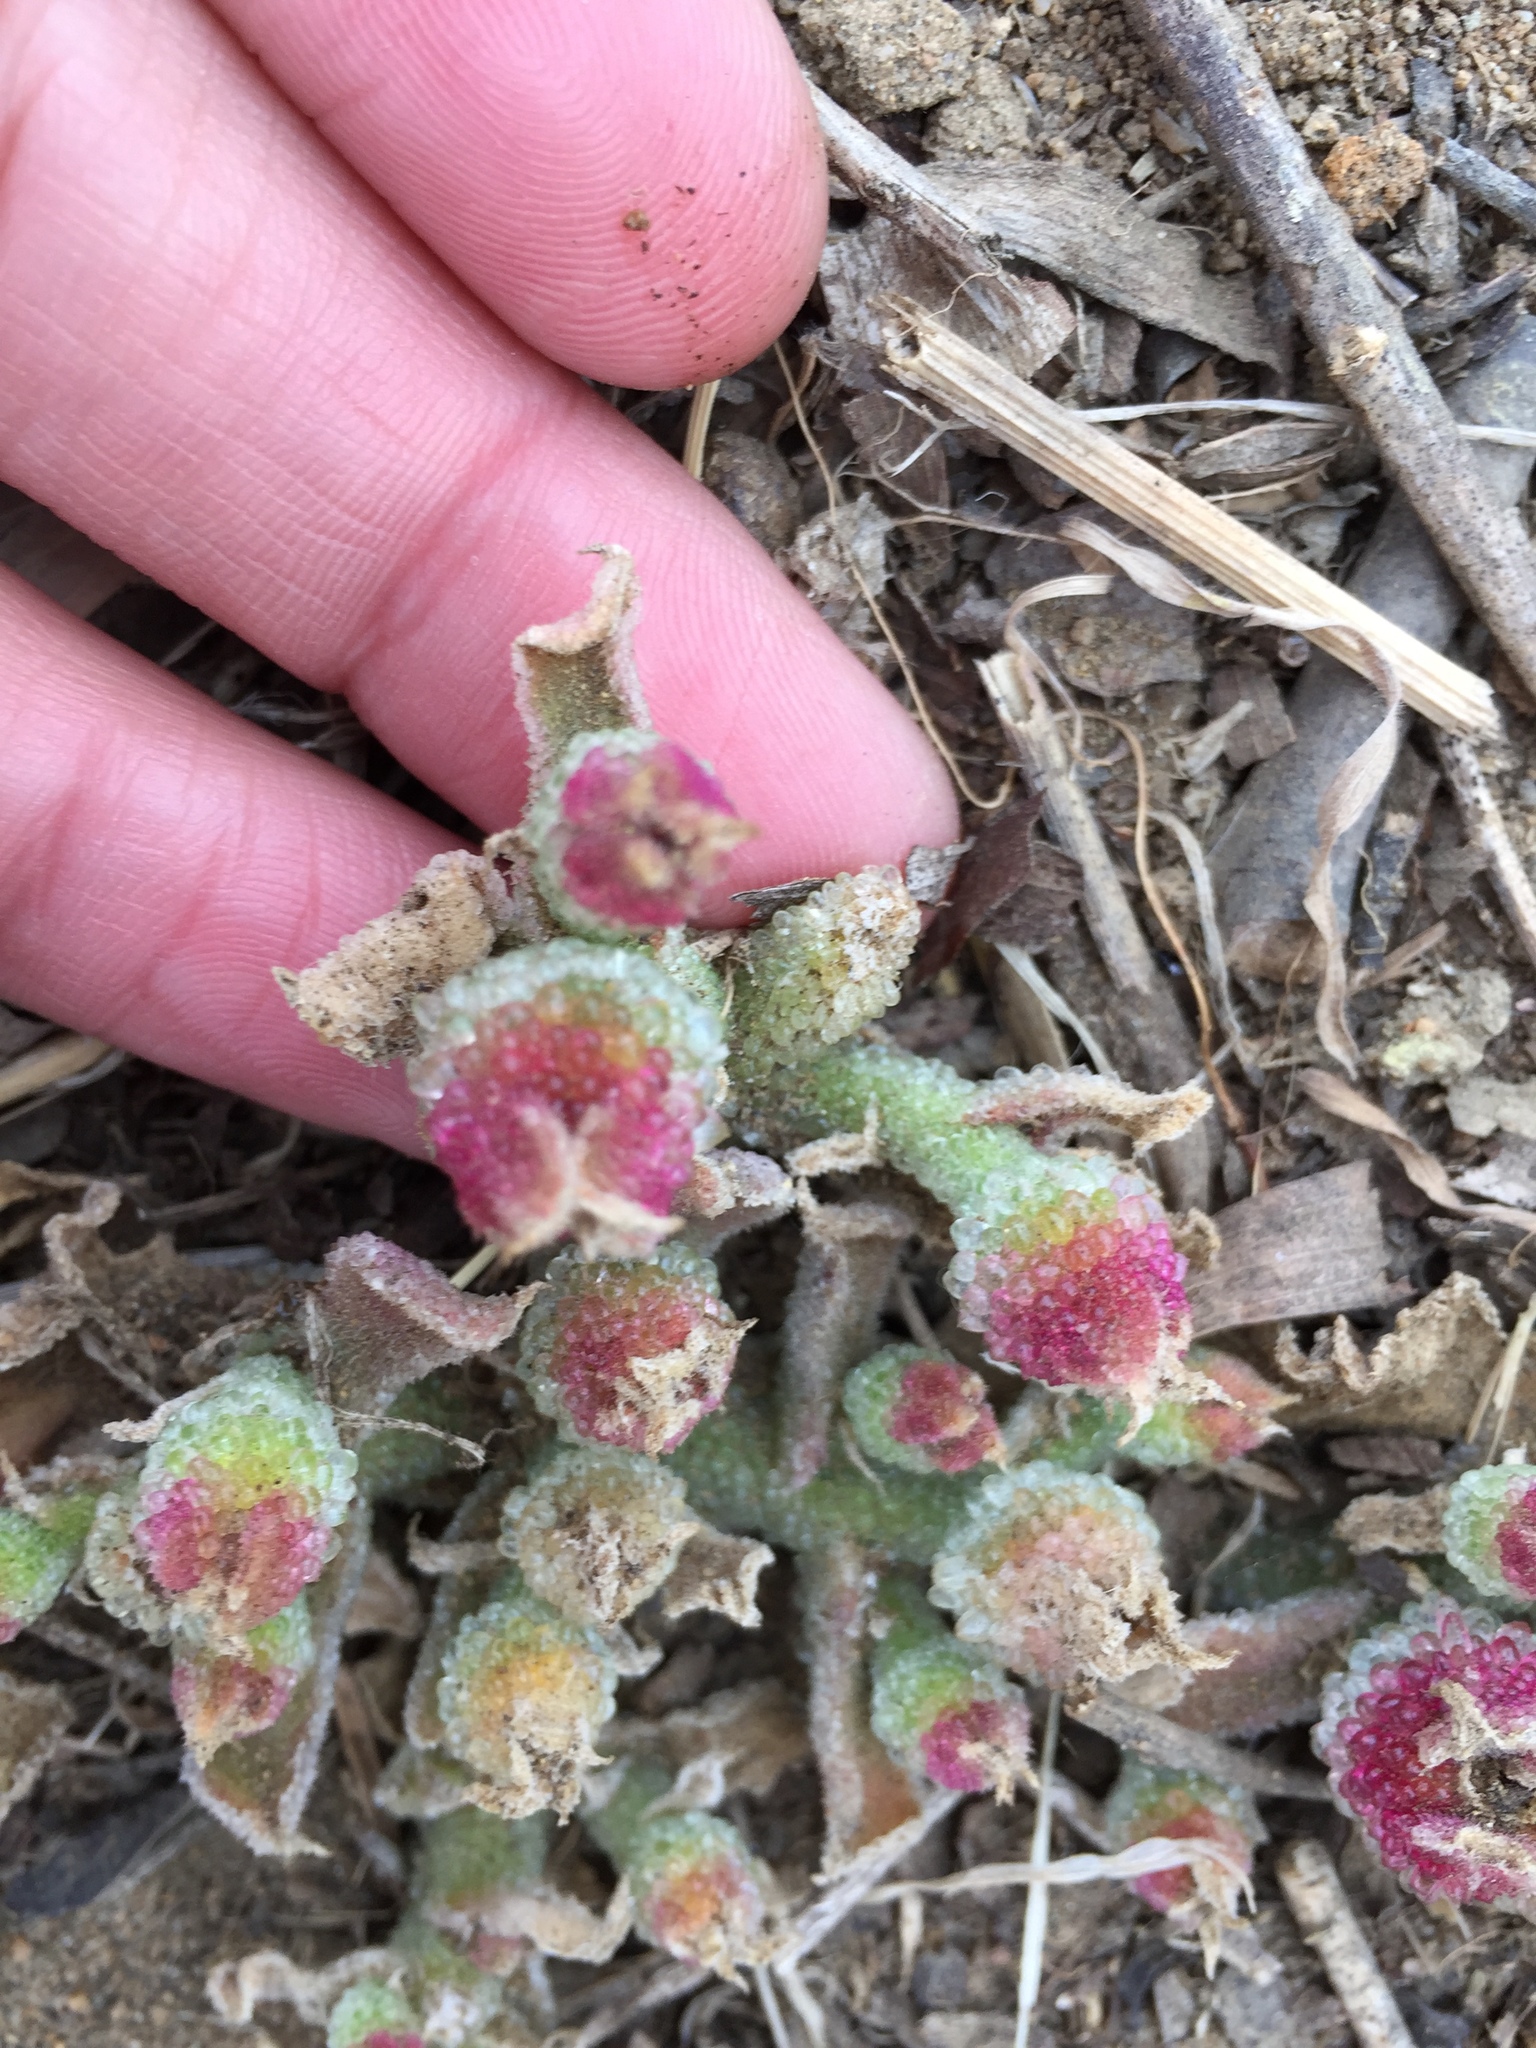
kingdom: Plantae
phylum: Tracheophyta
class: Magnoliopsida
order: Caryophyllales
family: Aizoaceae
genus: Mesembryanthemum
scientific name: Mesembryanthemum crystallinum
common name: Common iceplant
